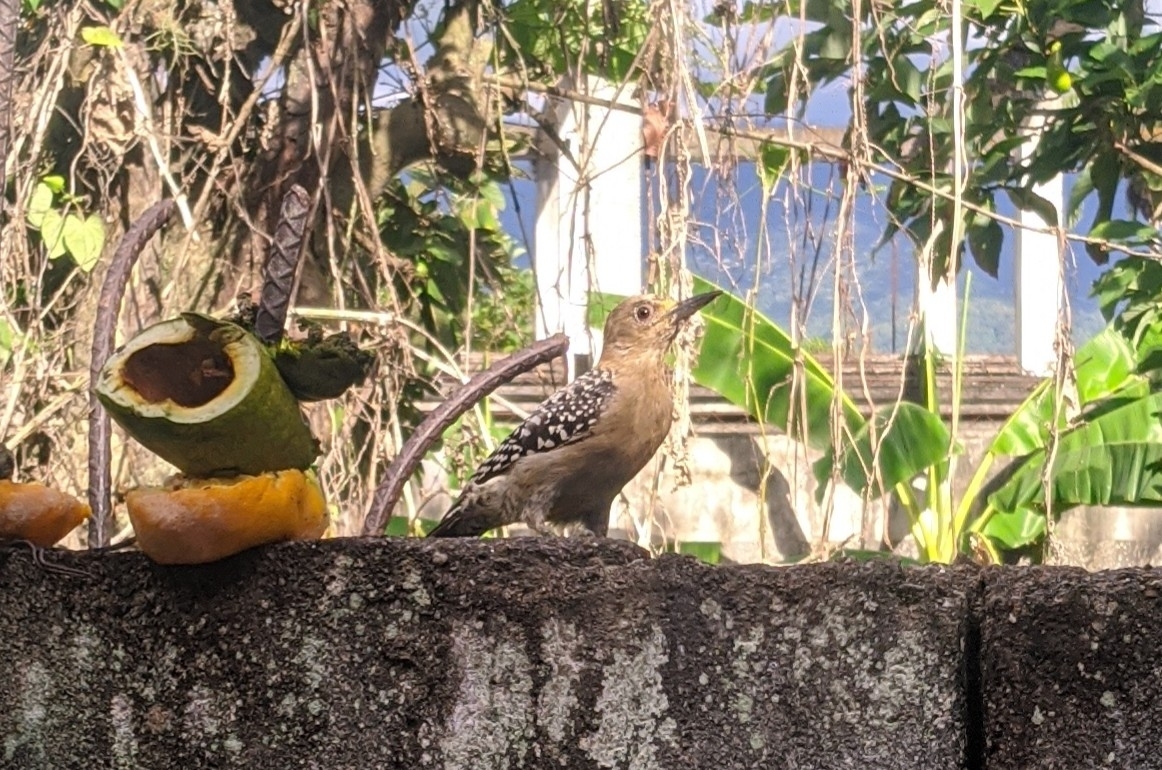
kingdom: Animalia
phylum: Chordata
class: Aves
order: Piciformes
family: Picidae
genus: Melanerpes
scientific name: Melanerpes rubricapillus
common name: Red-crowned woodpecker
